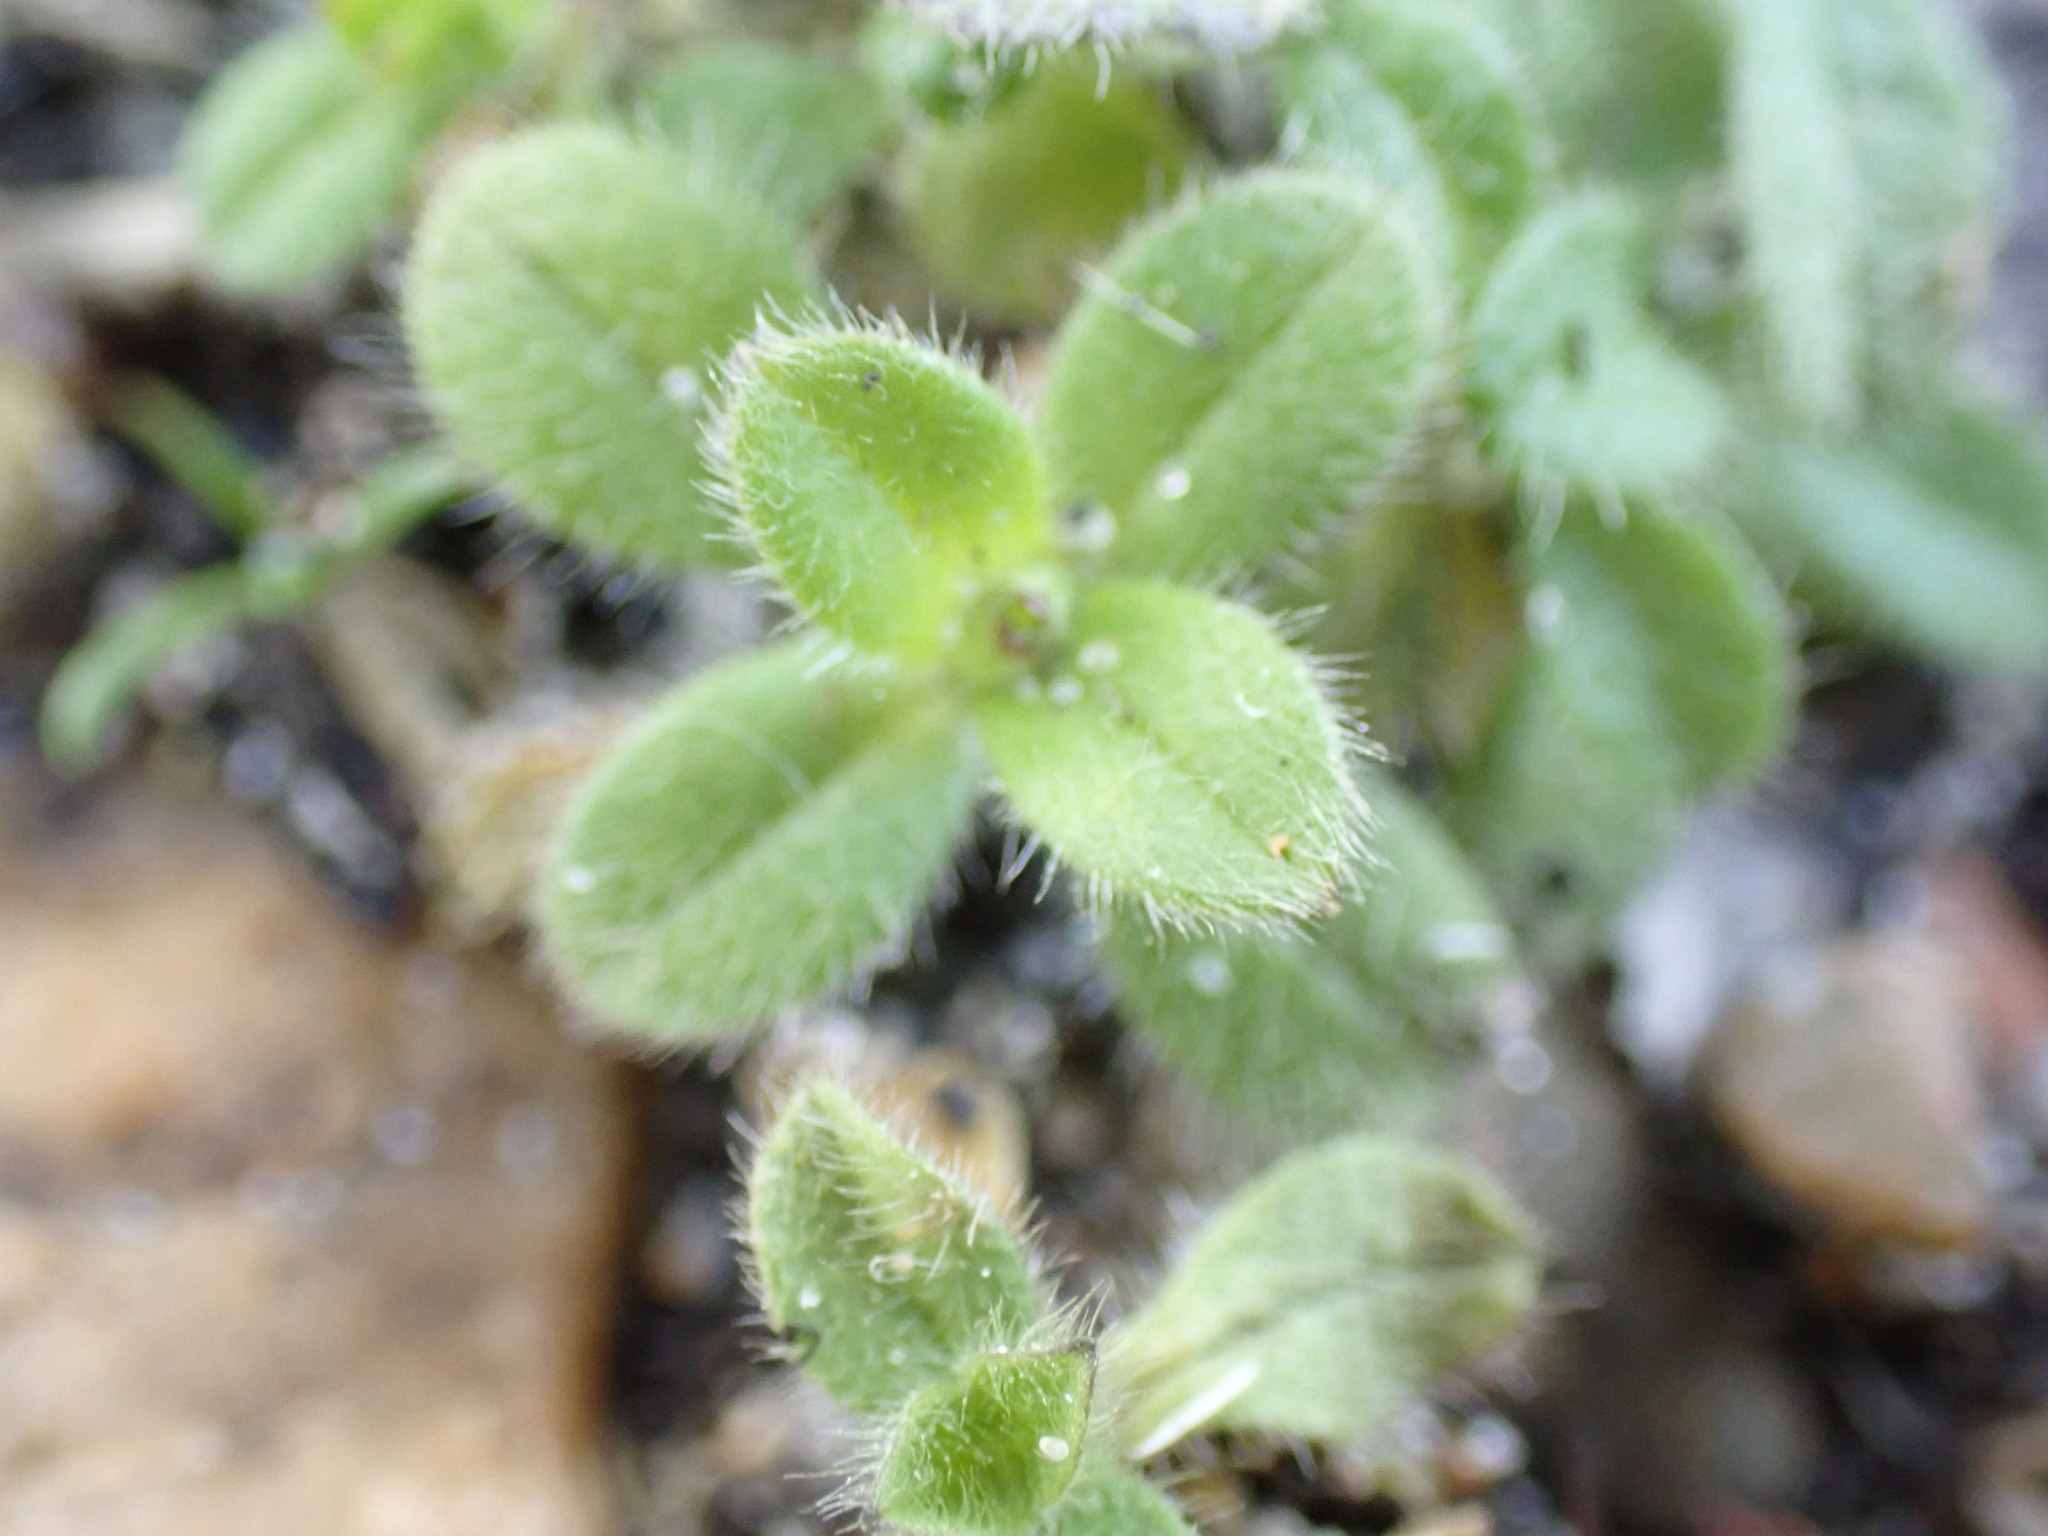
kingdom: Plantae
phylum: Tracheophyta
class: Magnoliopsida
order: Caryophyllales
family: Caryophyllaceae
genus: Cerastium
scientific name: Cerastium glomeratum
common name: Sticky chickweed
